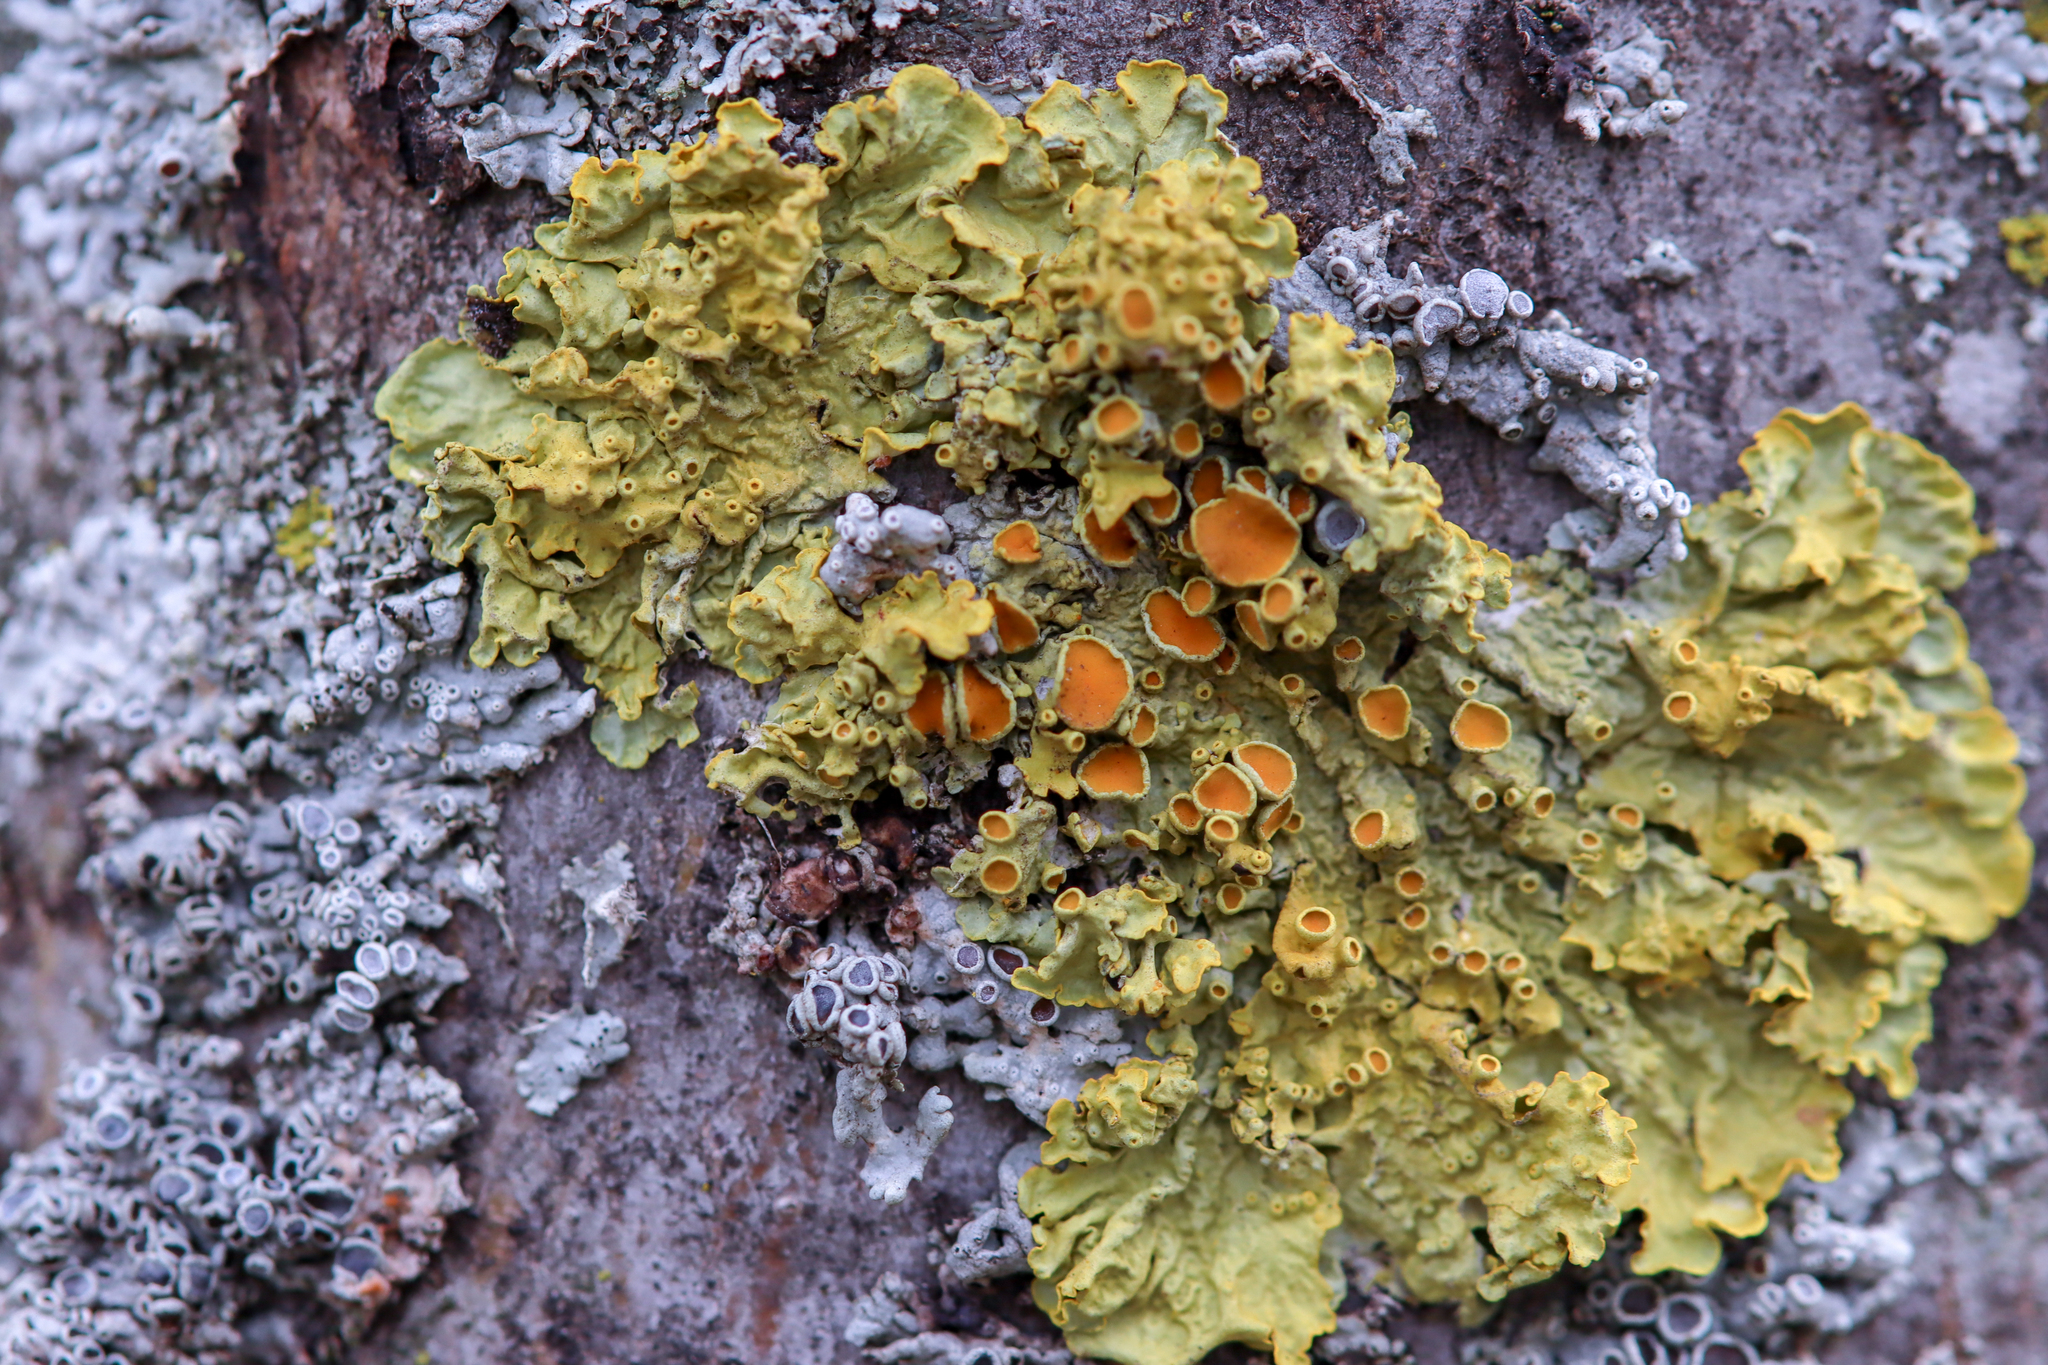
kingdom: Fungi
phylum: Ascomycota
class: Lecanoromycetes
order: Teloschistales
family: Teloschistaceae
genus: Xanthoria
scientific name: Xanthoria parietina
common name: Common orange lichen
